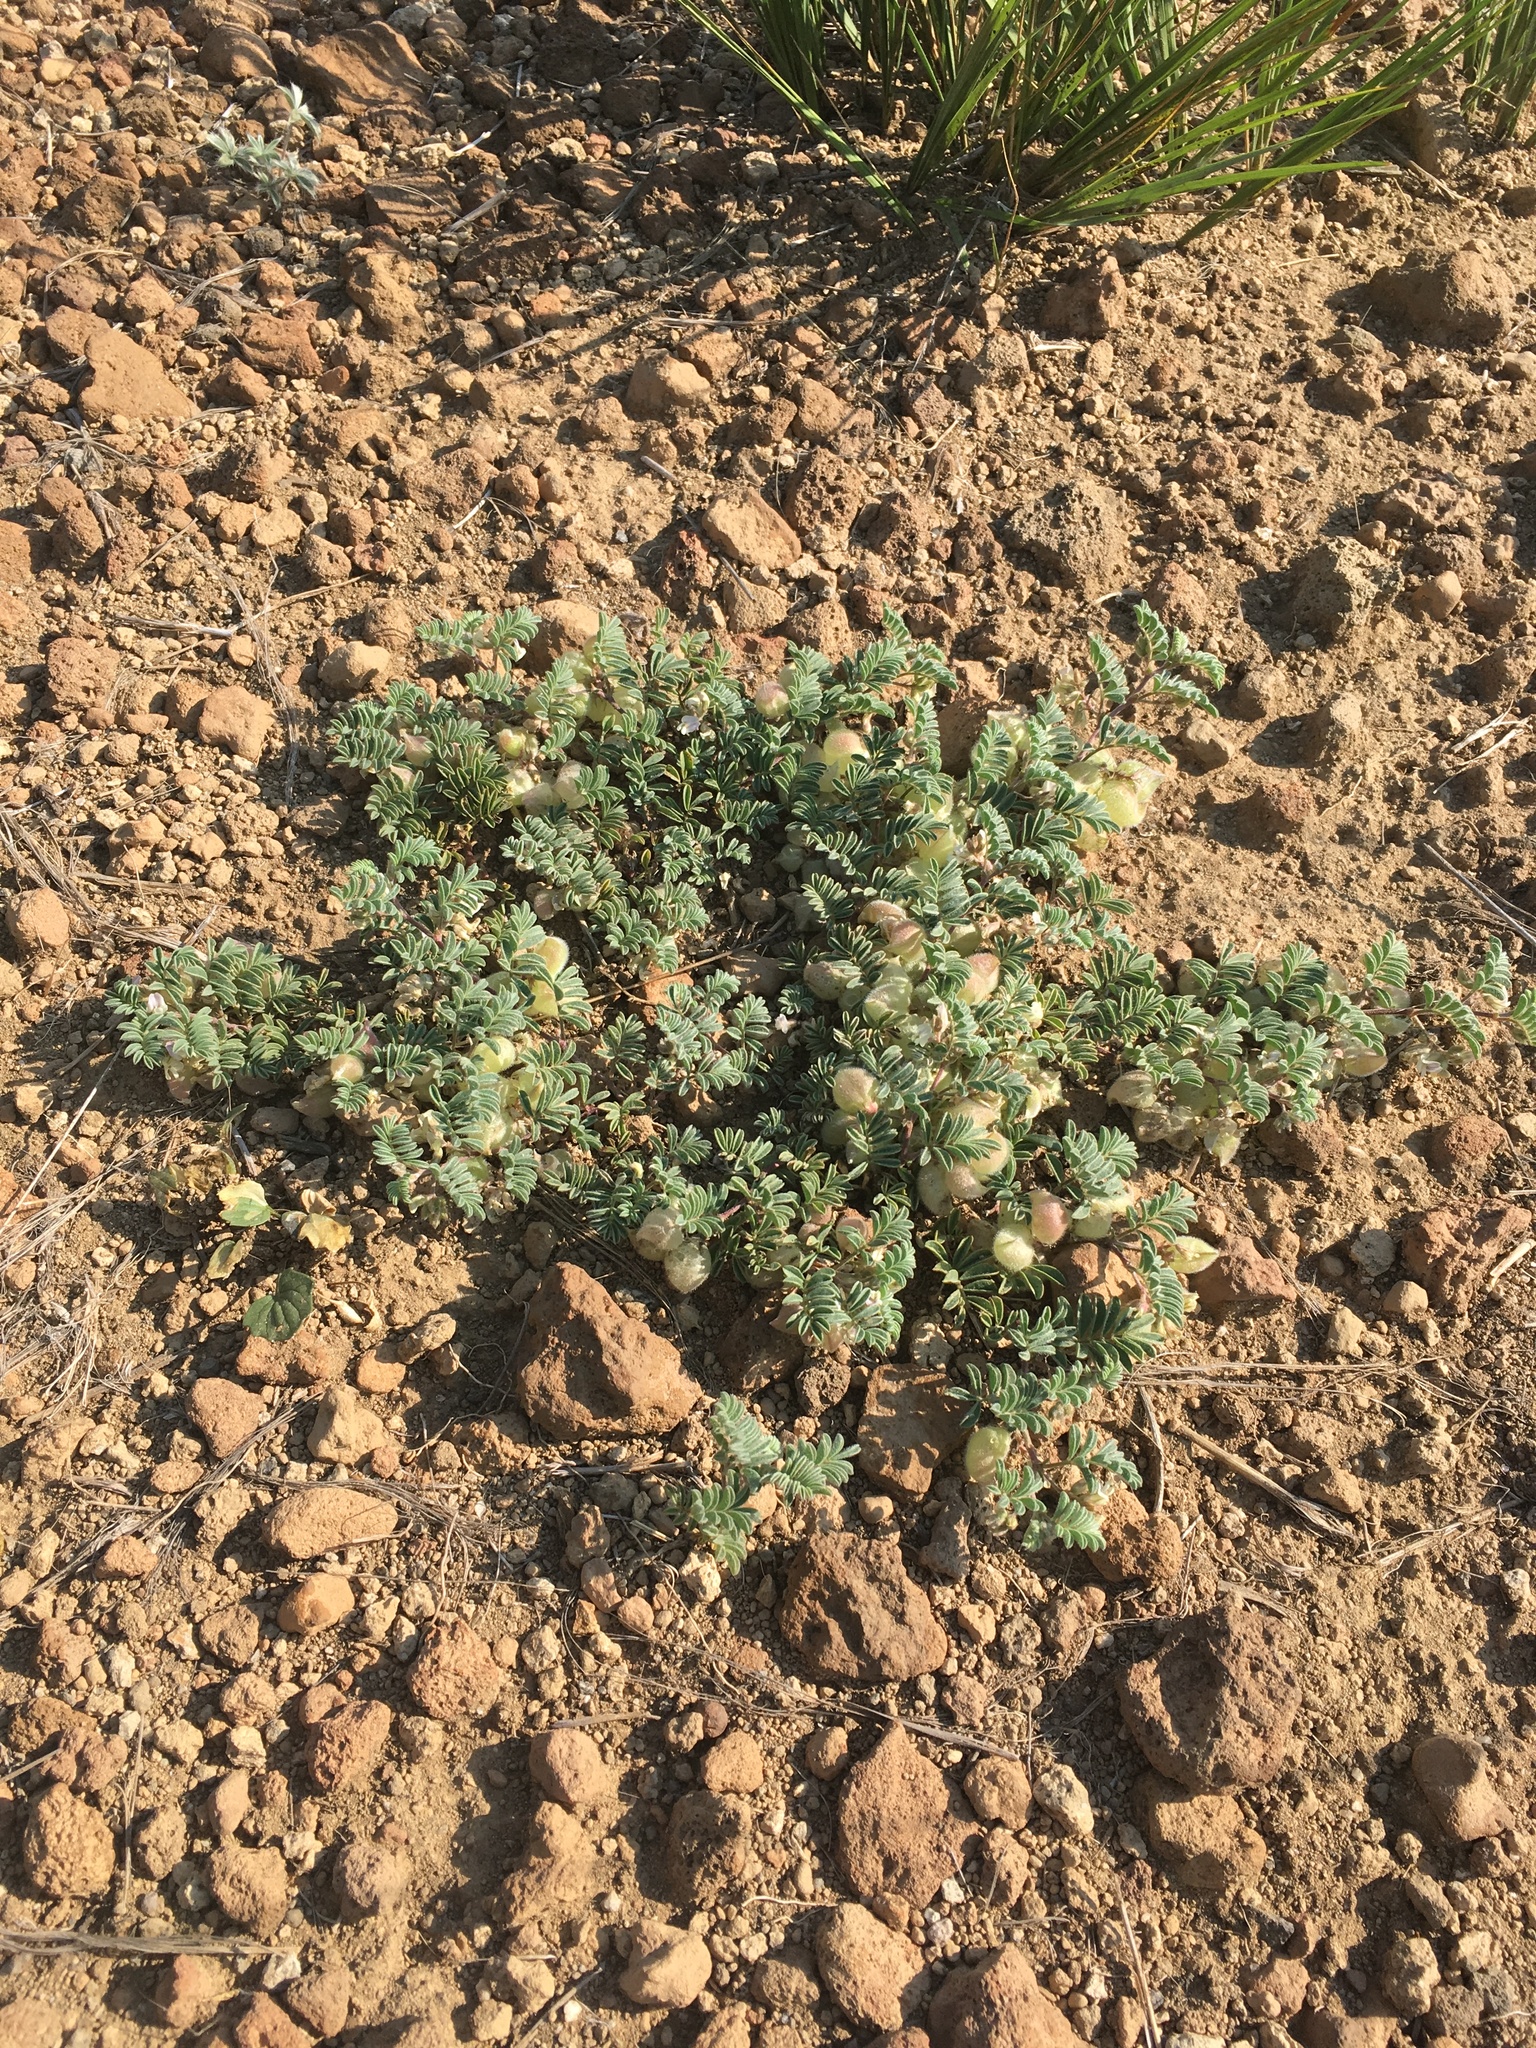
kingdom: Plantae
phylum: Tracheophyta
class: Magnoliopsida
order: Fabales
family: Fabaceae
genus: Astragalus
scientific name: Astragalus pulsiferae
